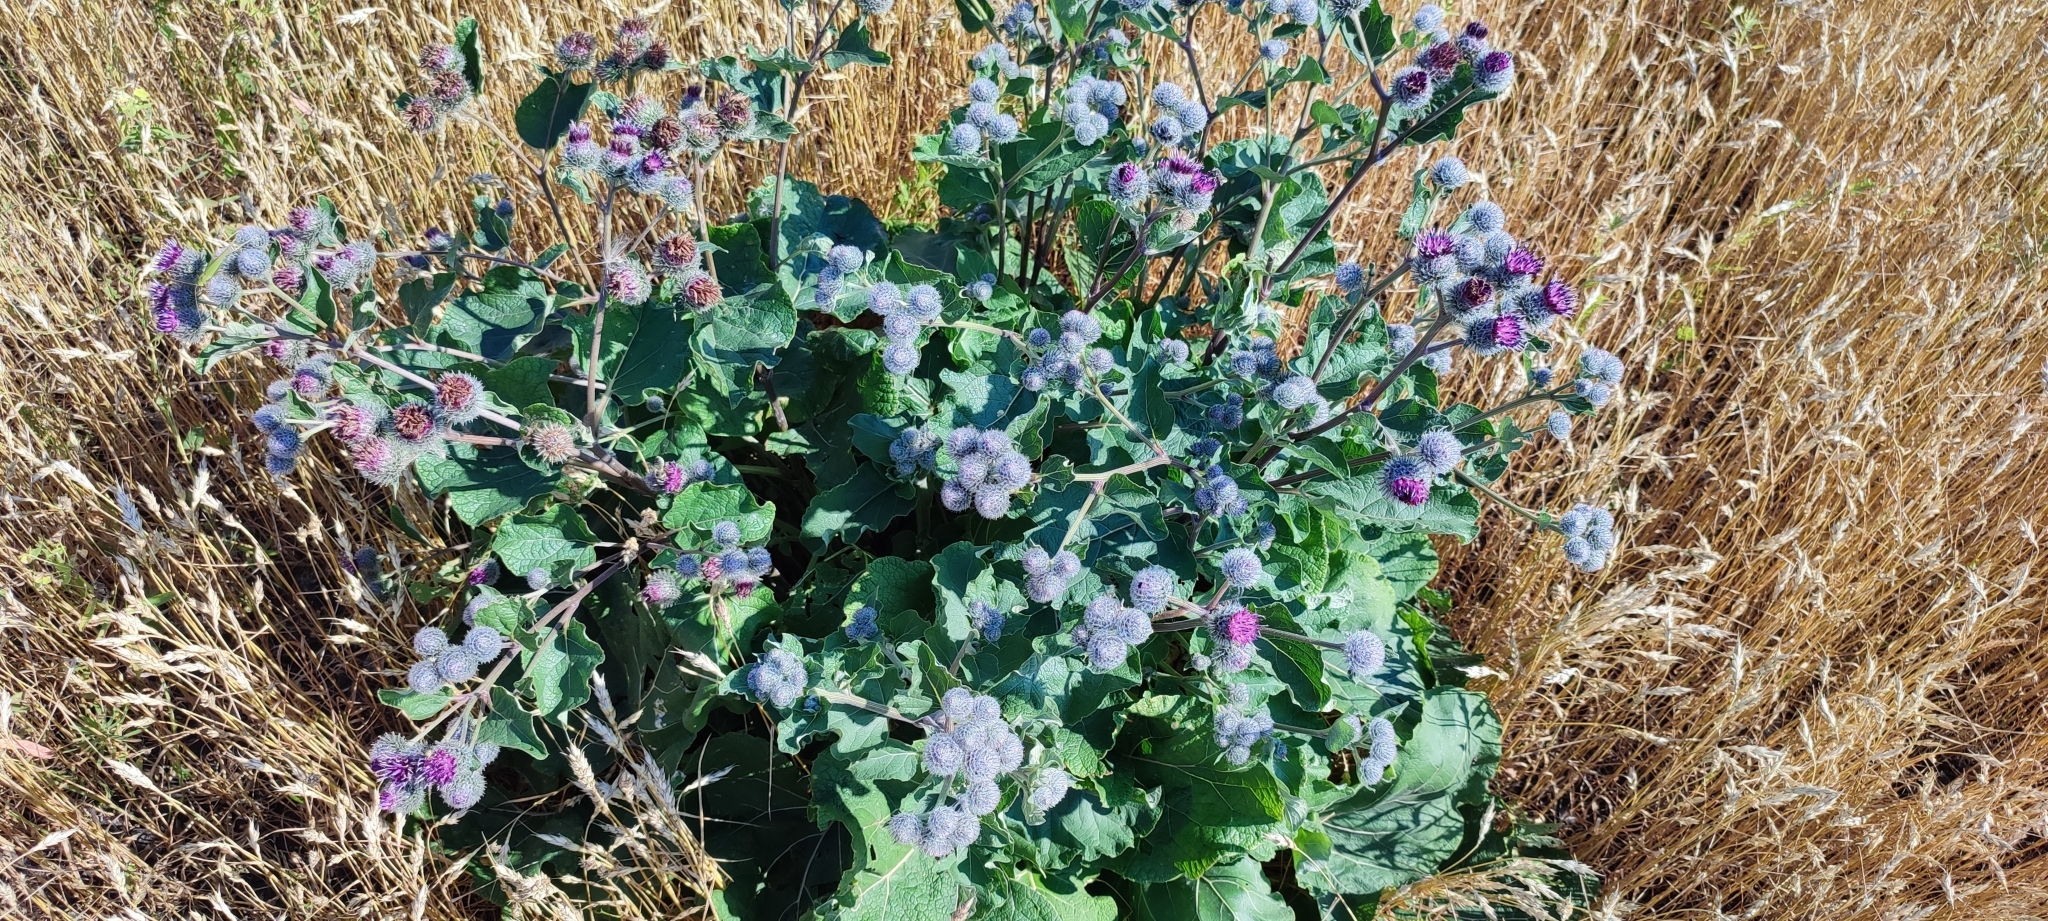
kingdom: Plantae
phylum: Tracheophyta
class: Magnoliopsida
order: Asterales
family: Asteraceae
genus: Arctium
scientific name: Arctium tomentosum
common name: Woolly burdock
